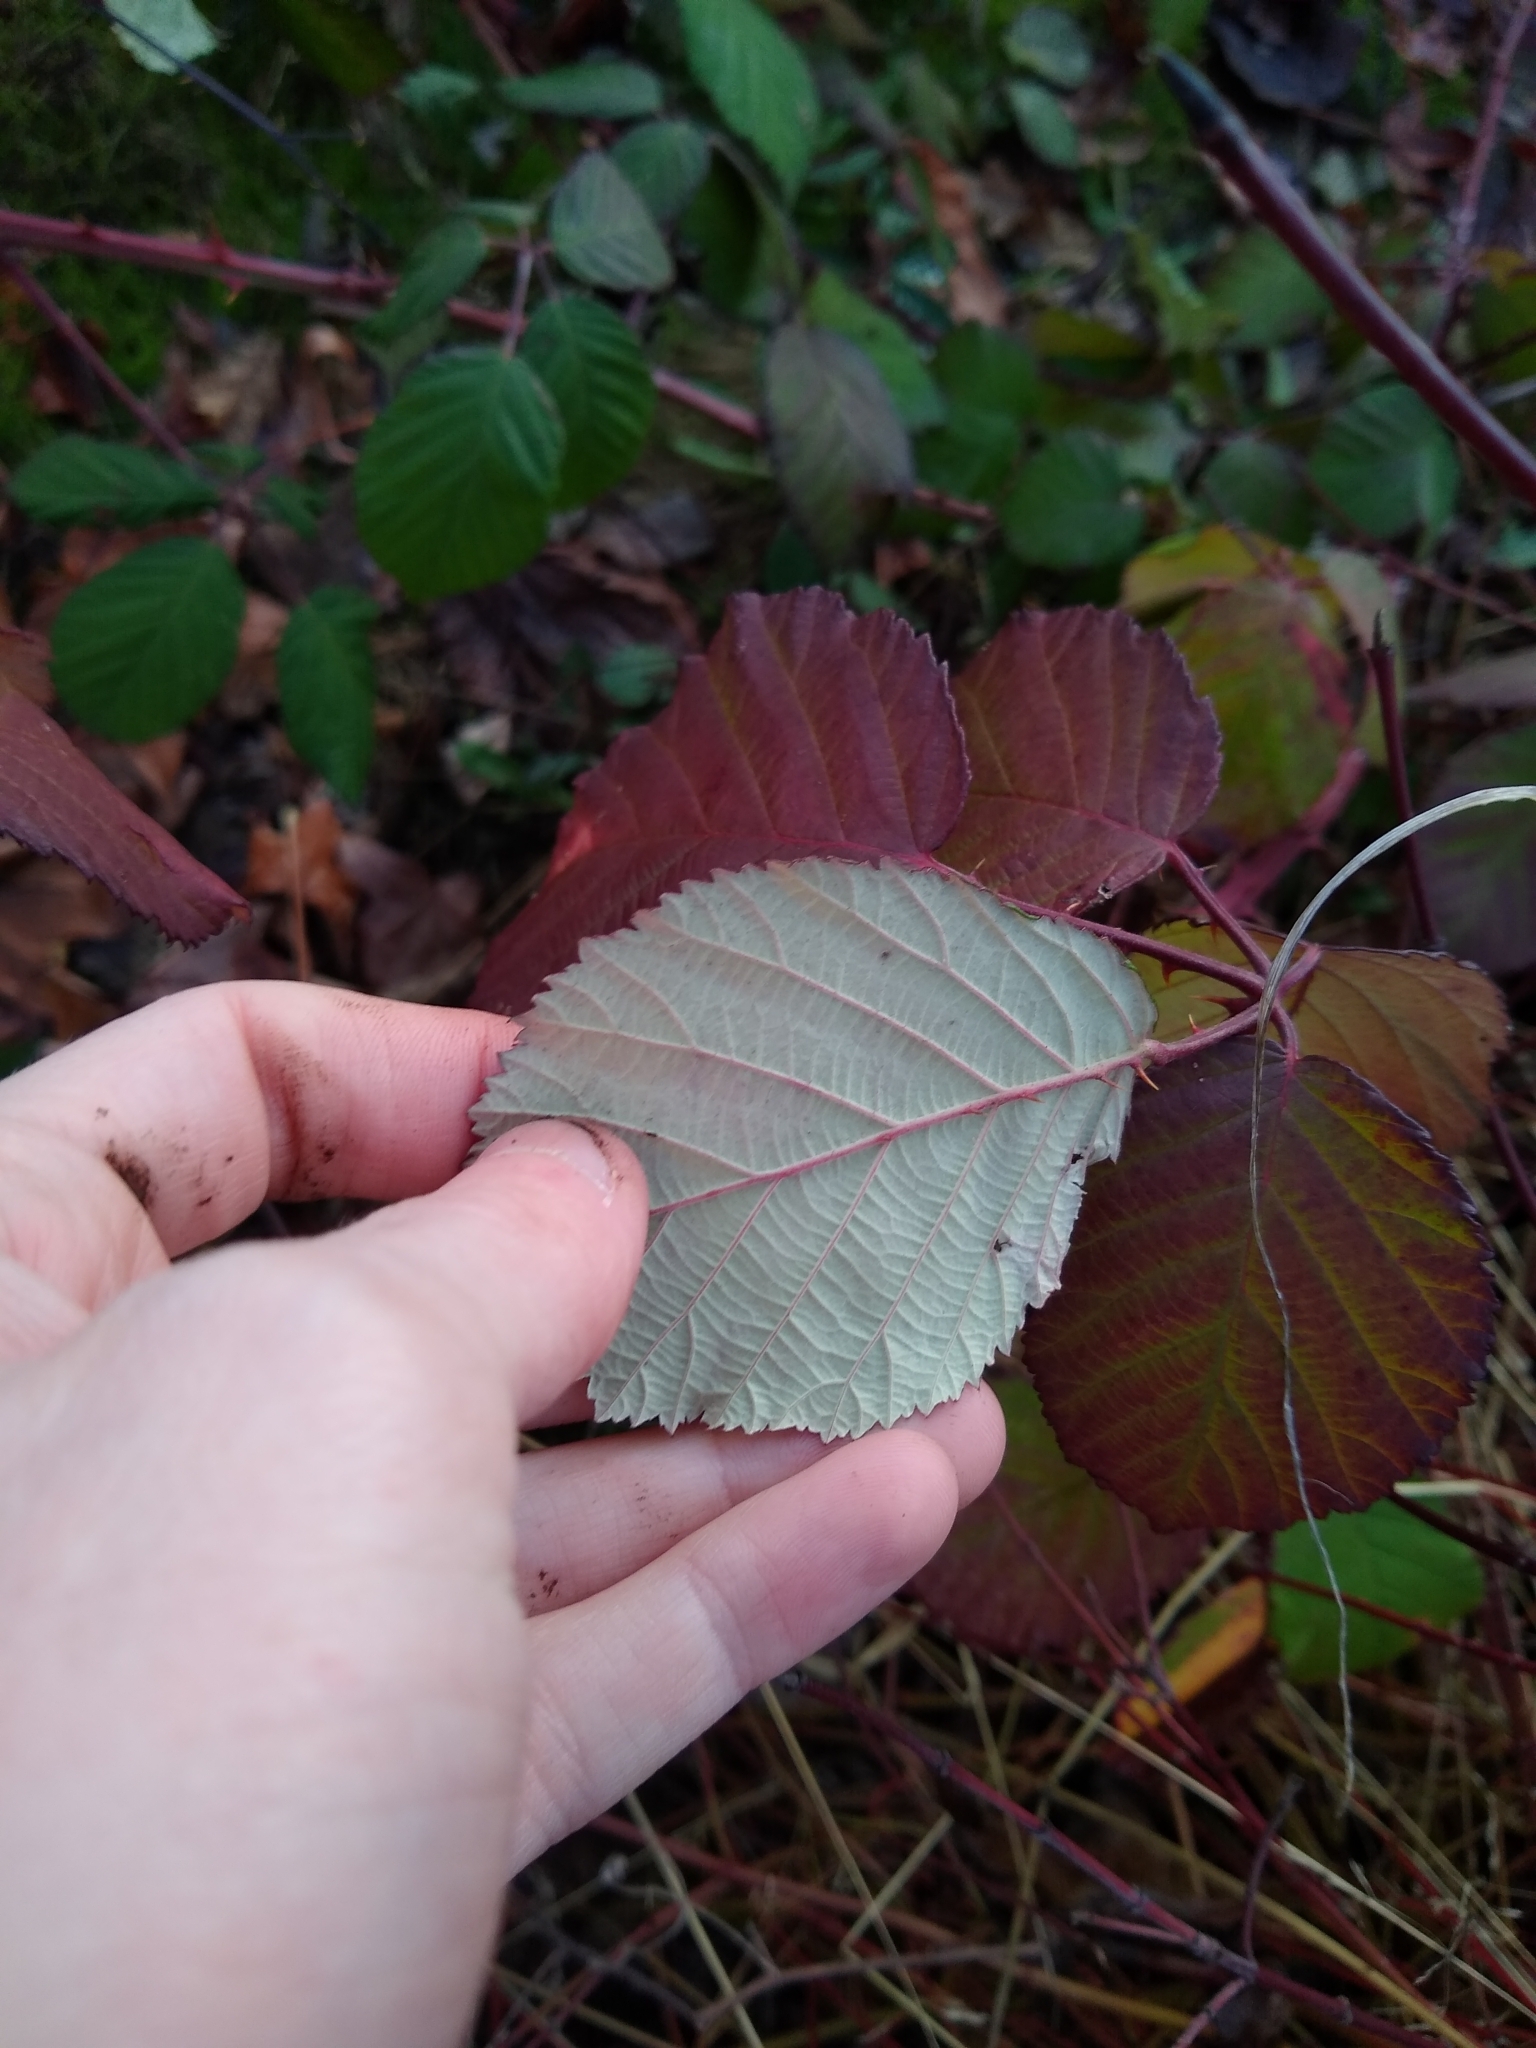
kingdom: Plantae
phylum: Tracheophyta
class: Magnoliopsida
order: Rosales
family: Rosaceae
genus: Rubus
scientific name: Rubus
